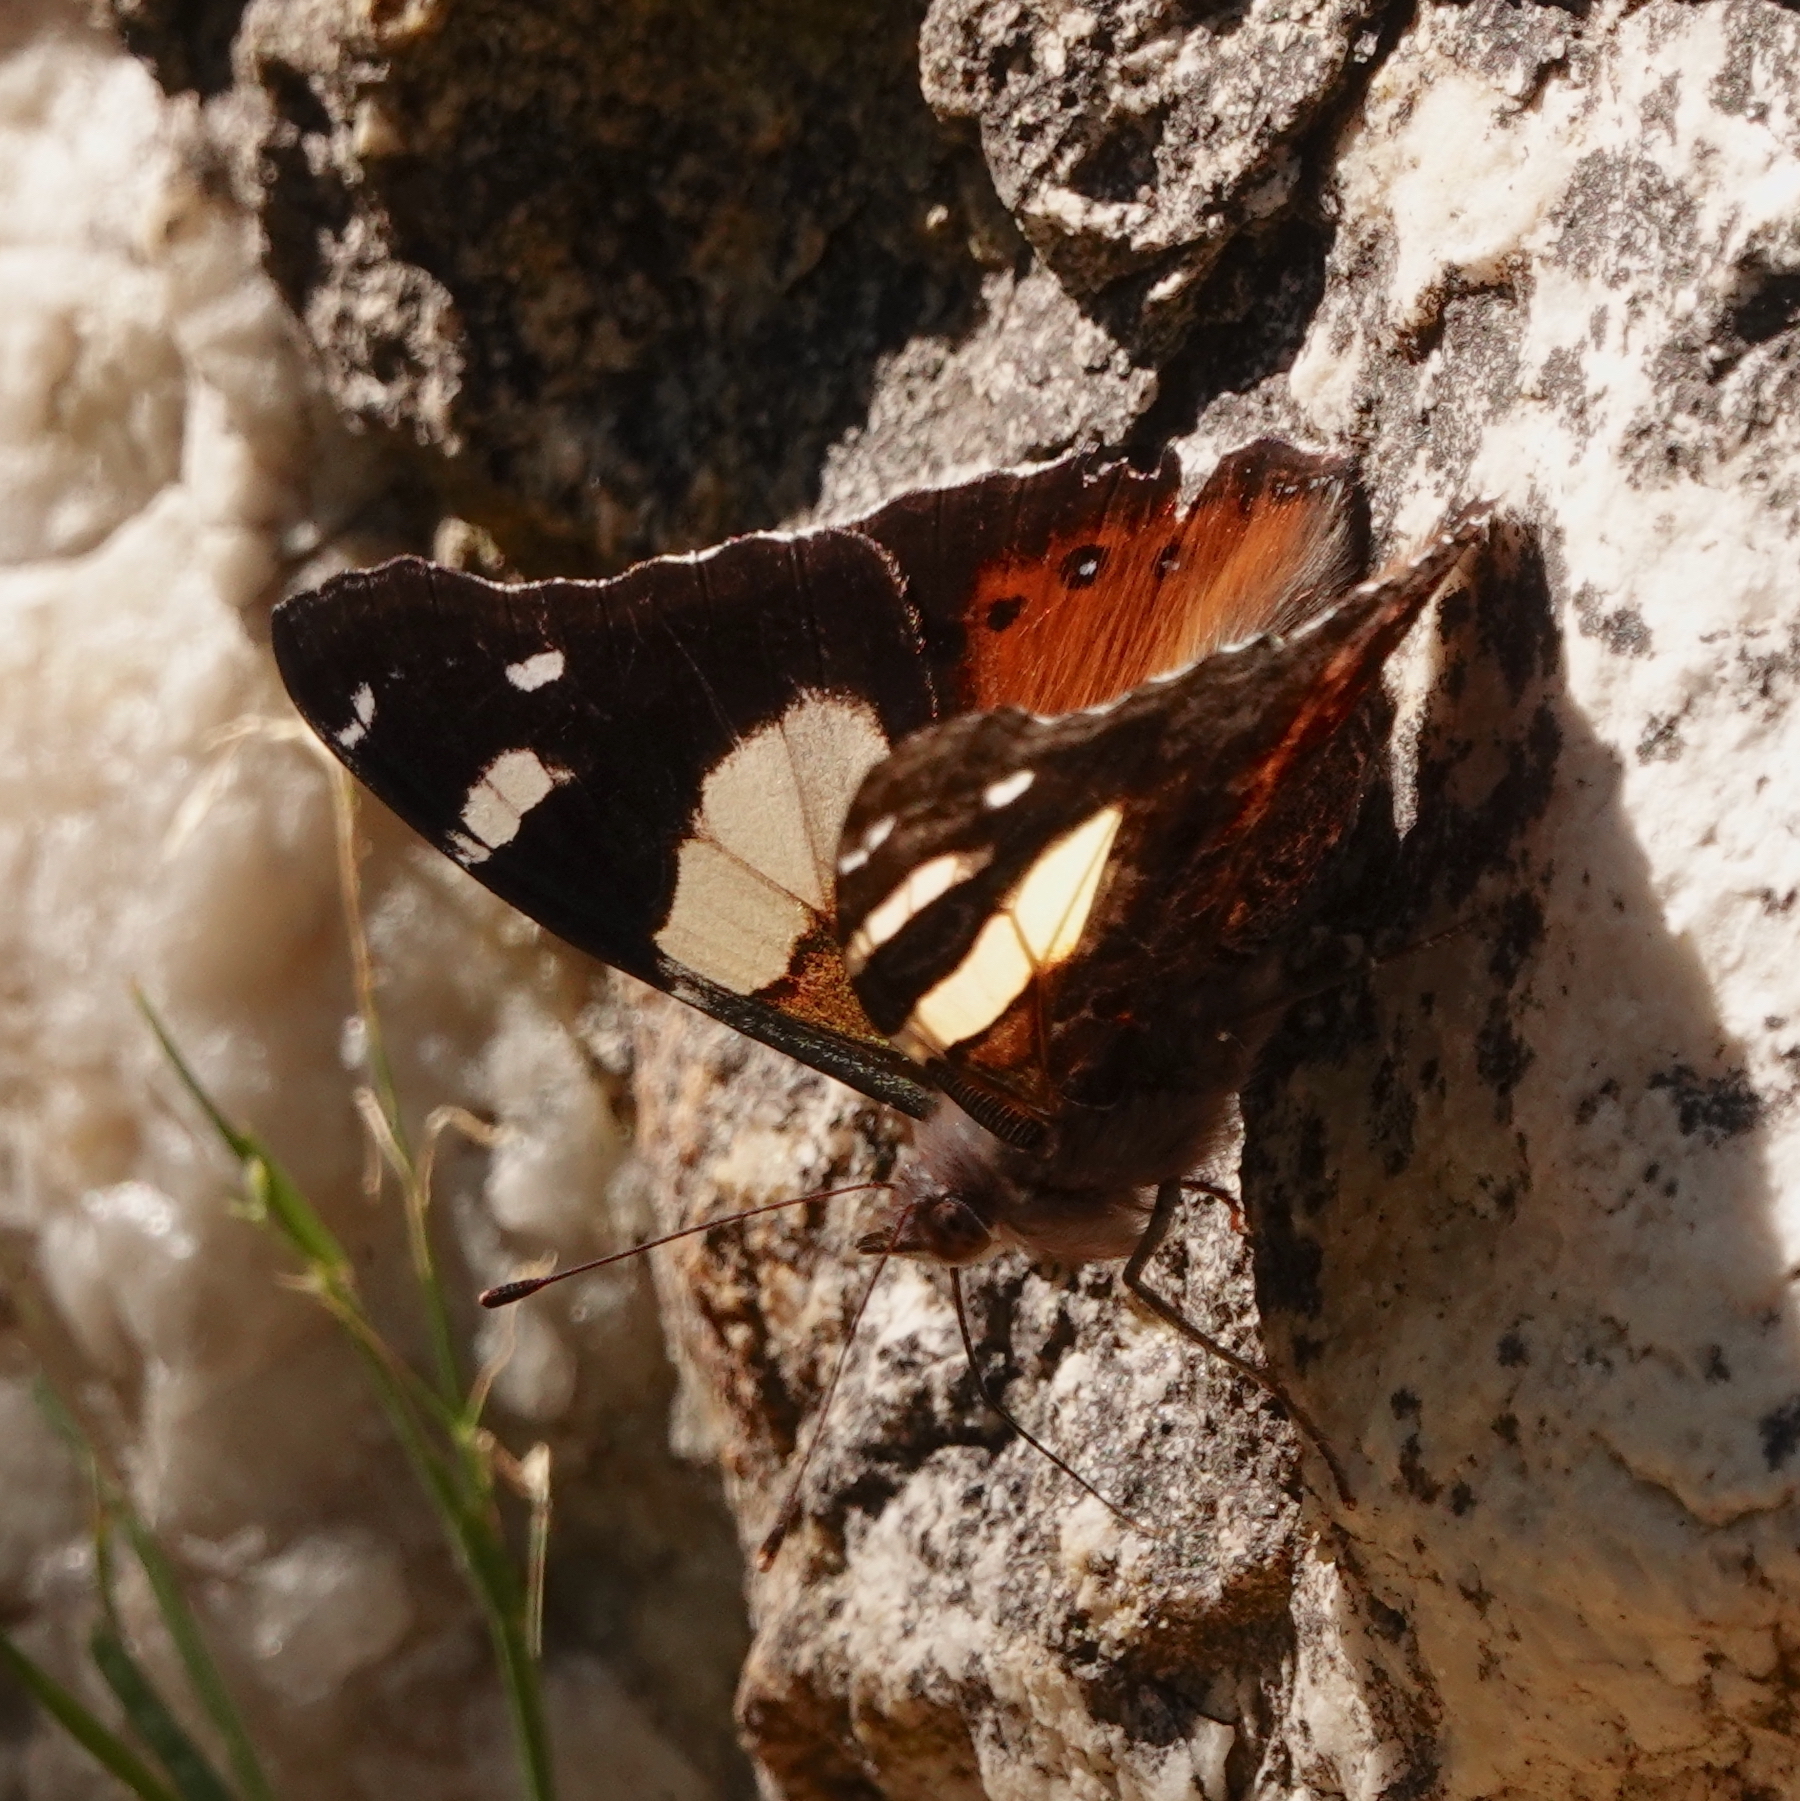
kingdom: Animalia
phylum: Arthropoda
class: Insecta
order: Lepidoptera
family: Nymphalidae
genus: Vanessa
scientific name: Vanessa itea
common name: Yellow admiral
